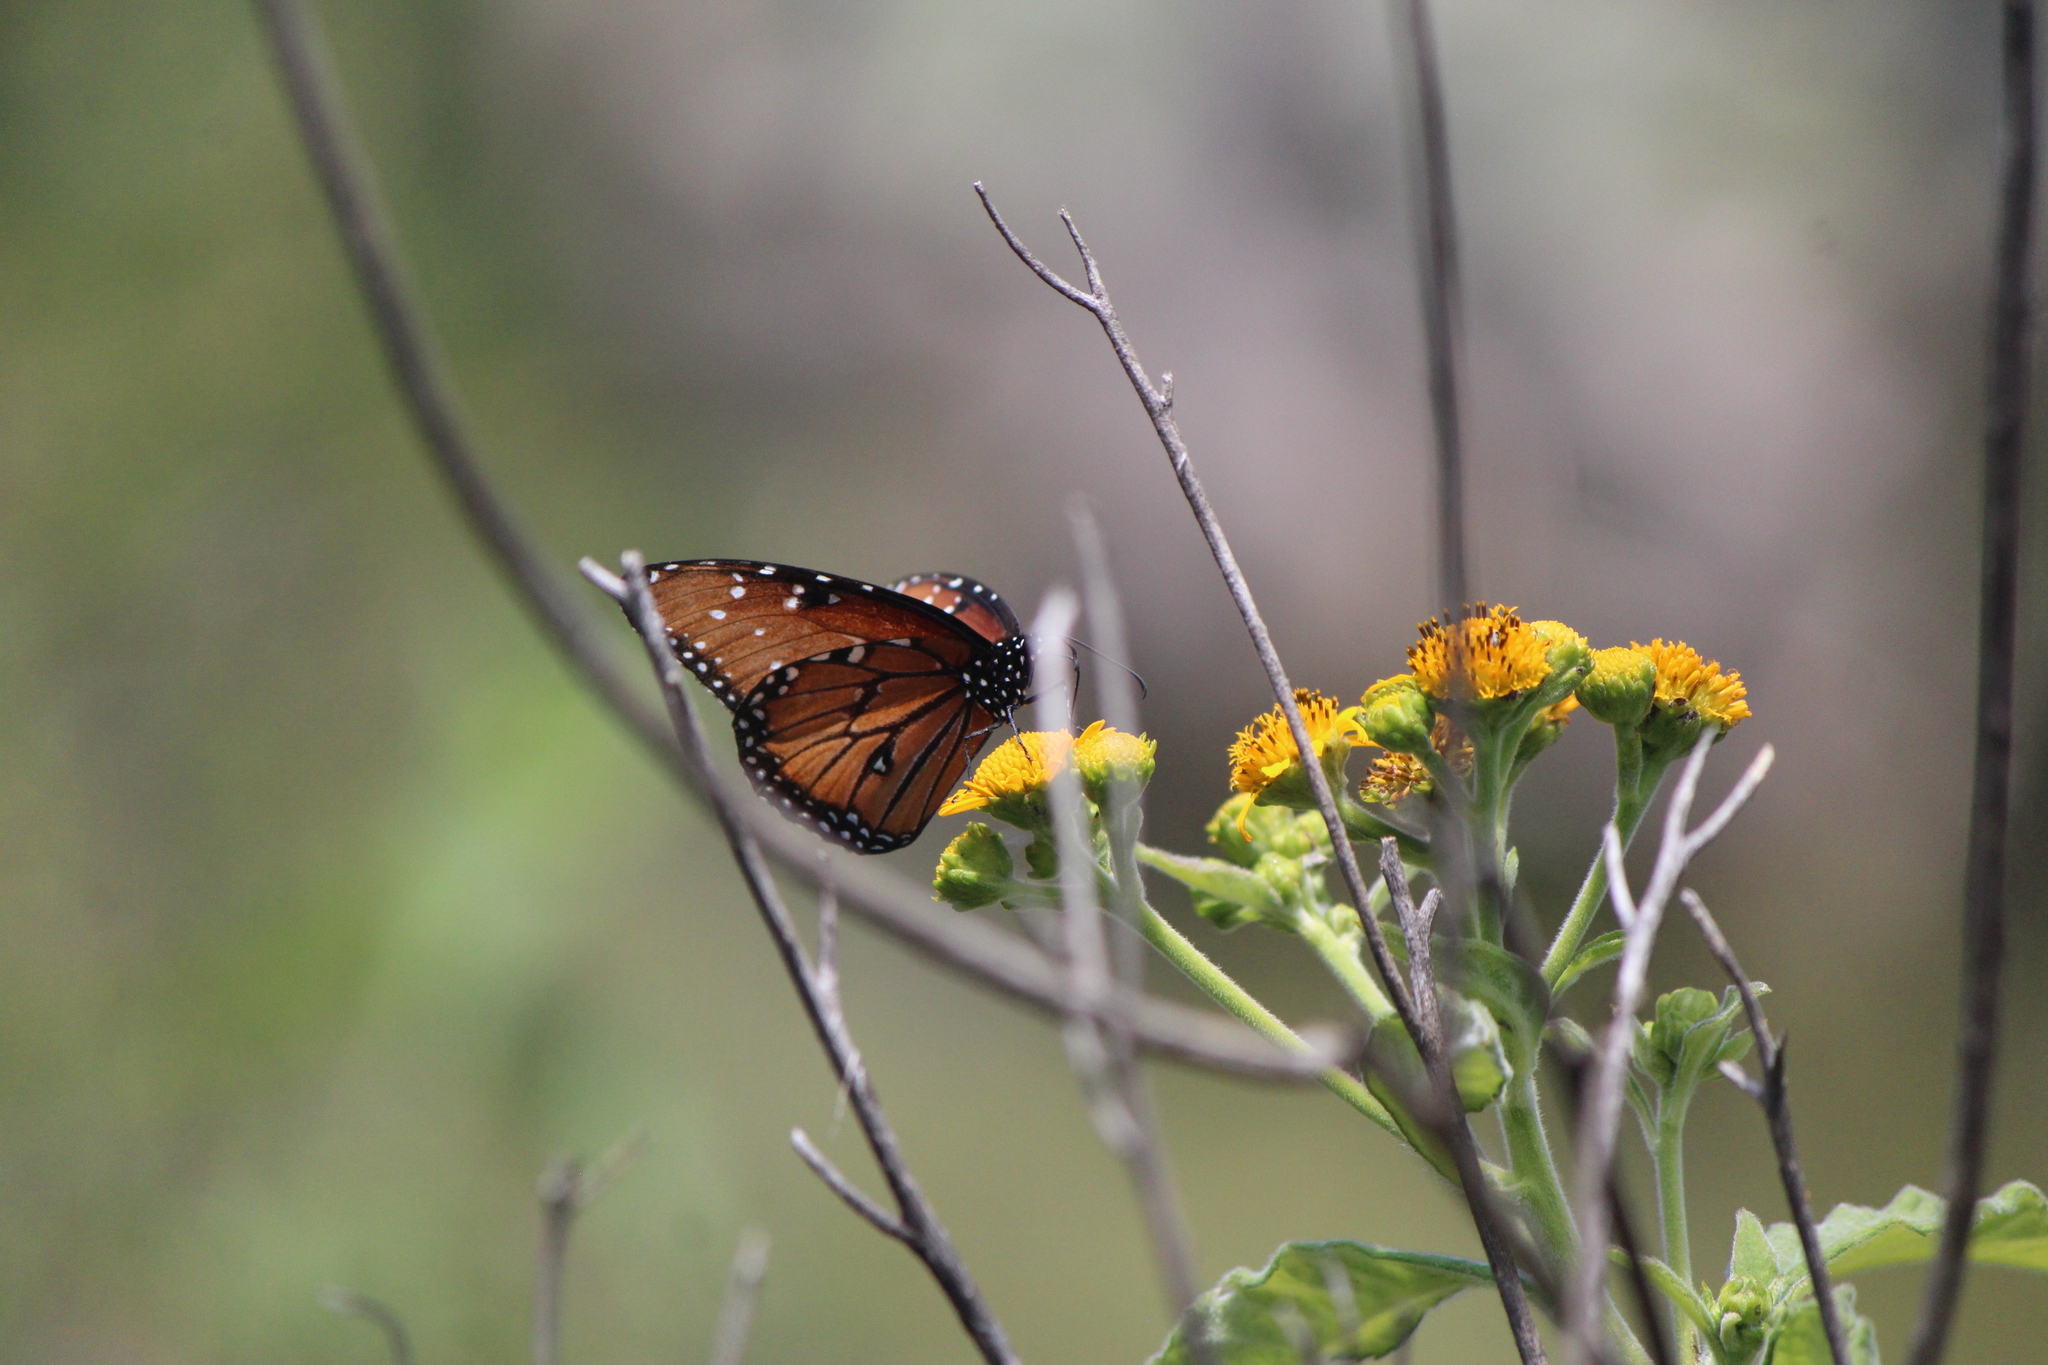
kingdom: Animalia
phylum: Arthropoda
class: Insecta
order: Lepidoptera
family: Nymphalidae
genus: Danaus
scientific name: Danaus gilippus
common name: Queen
